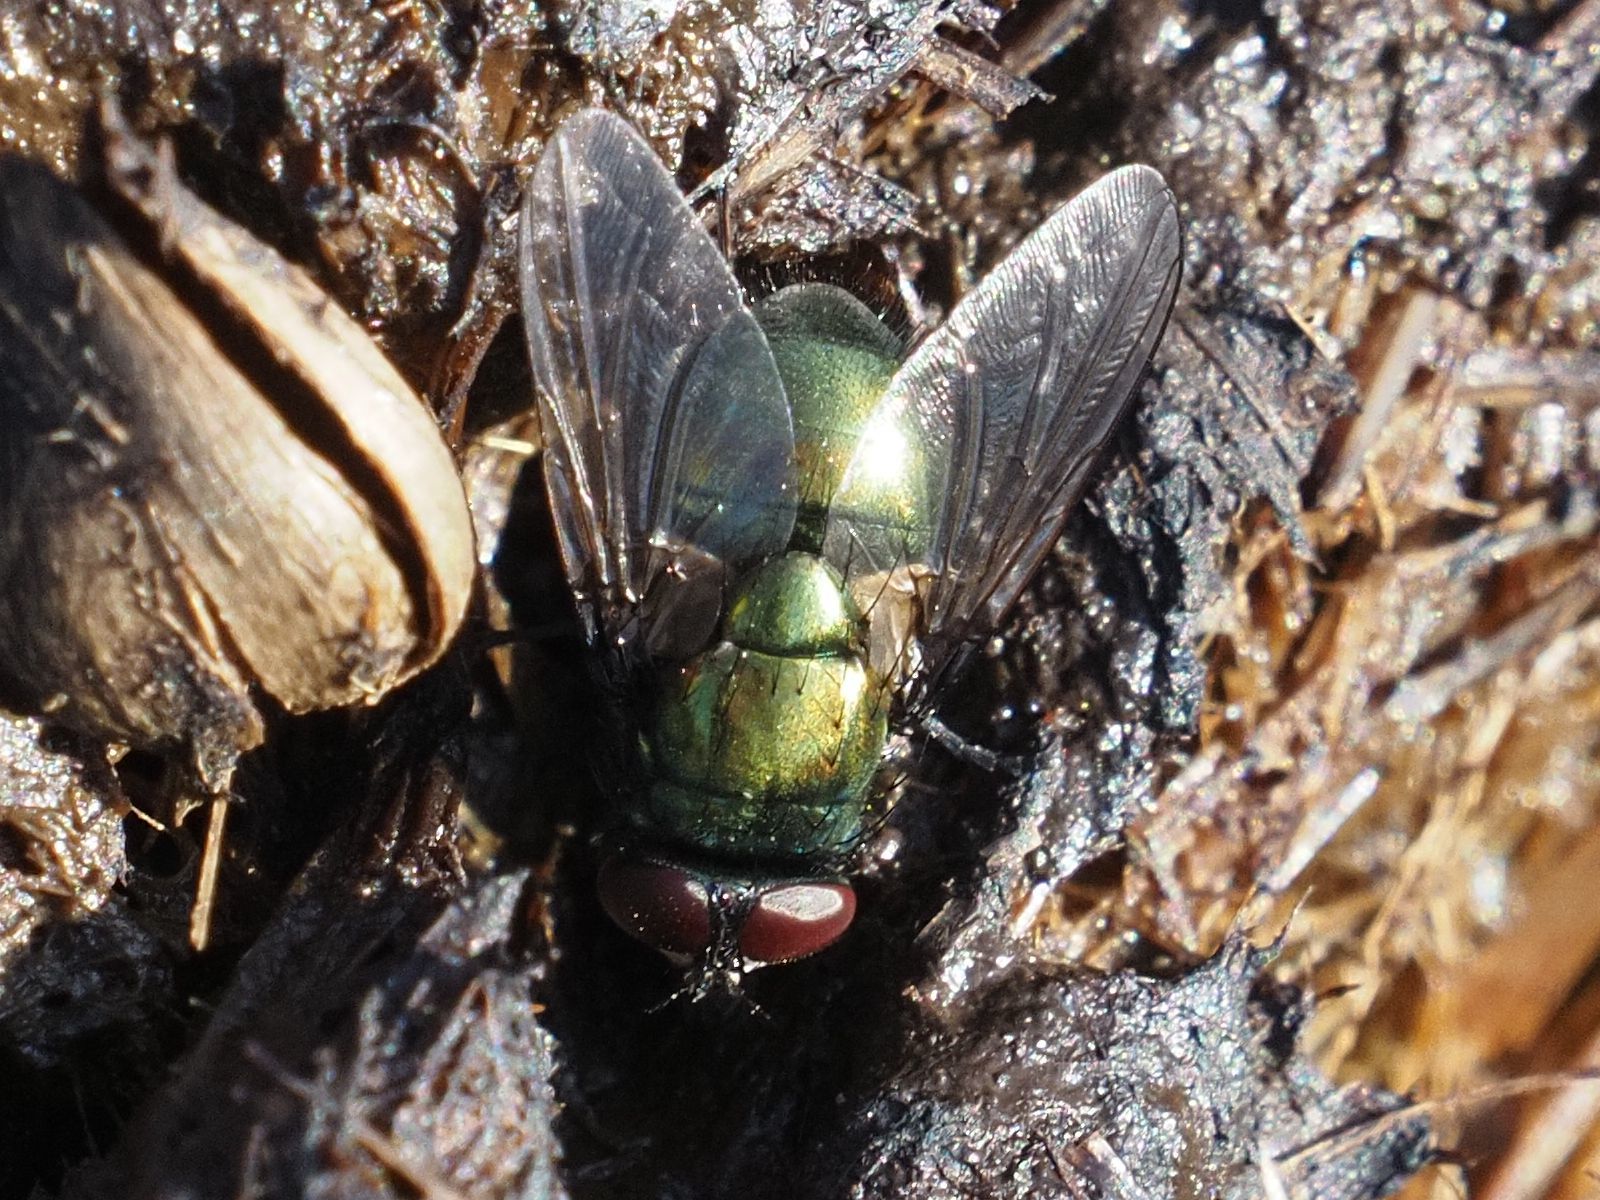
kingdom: Animalia
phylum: Arthropoda
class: Insecta
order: Diptera
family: Muscidae
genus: Neomyia
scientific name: Neomyia cornicina
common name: House fly
